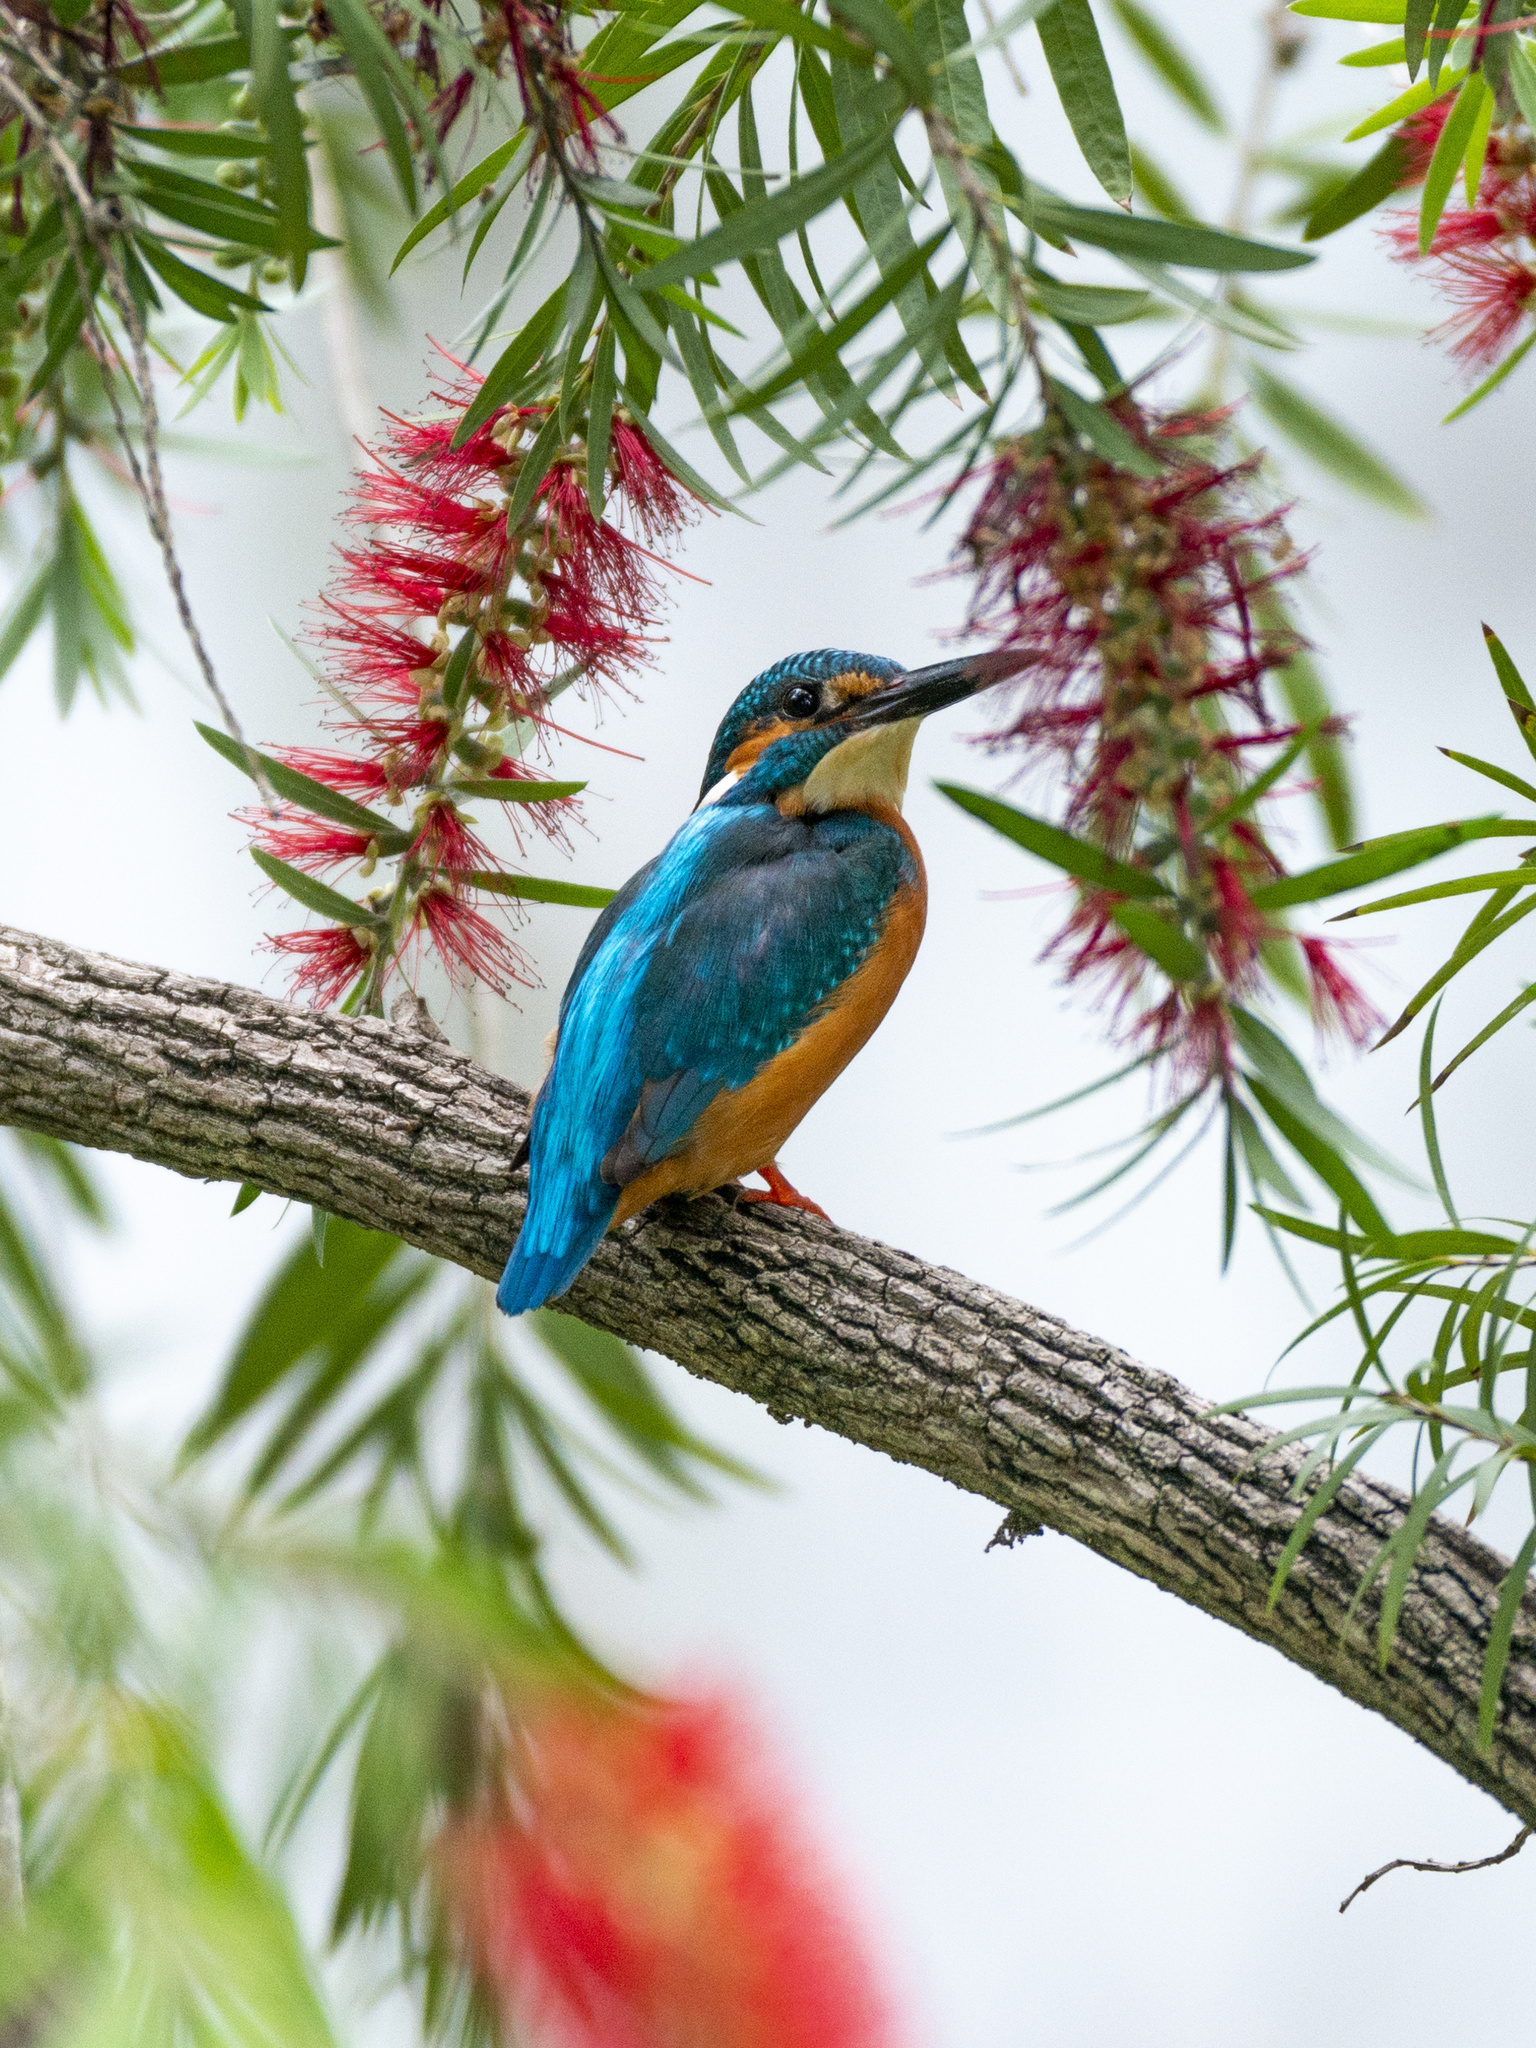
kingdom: Animalia
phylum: Chordata
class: Aves
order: Coraciiformes
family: Alcedinidae
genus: Alcedo
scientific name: Alcedo atthis
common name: Common kingfisher
